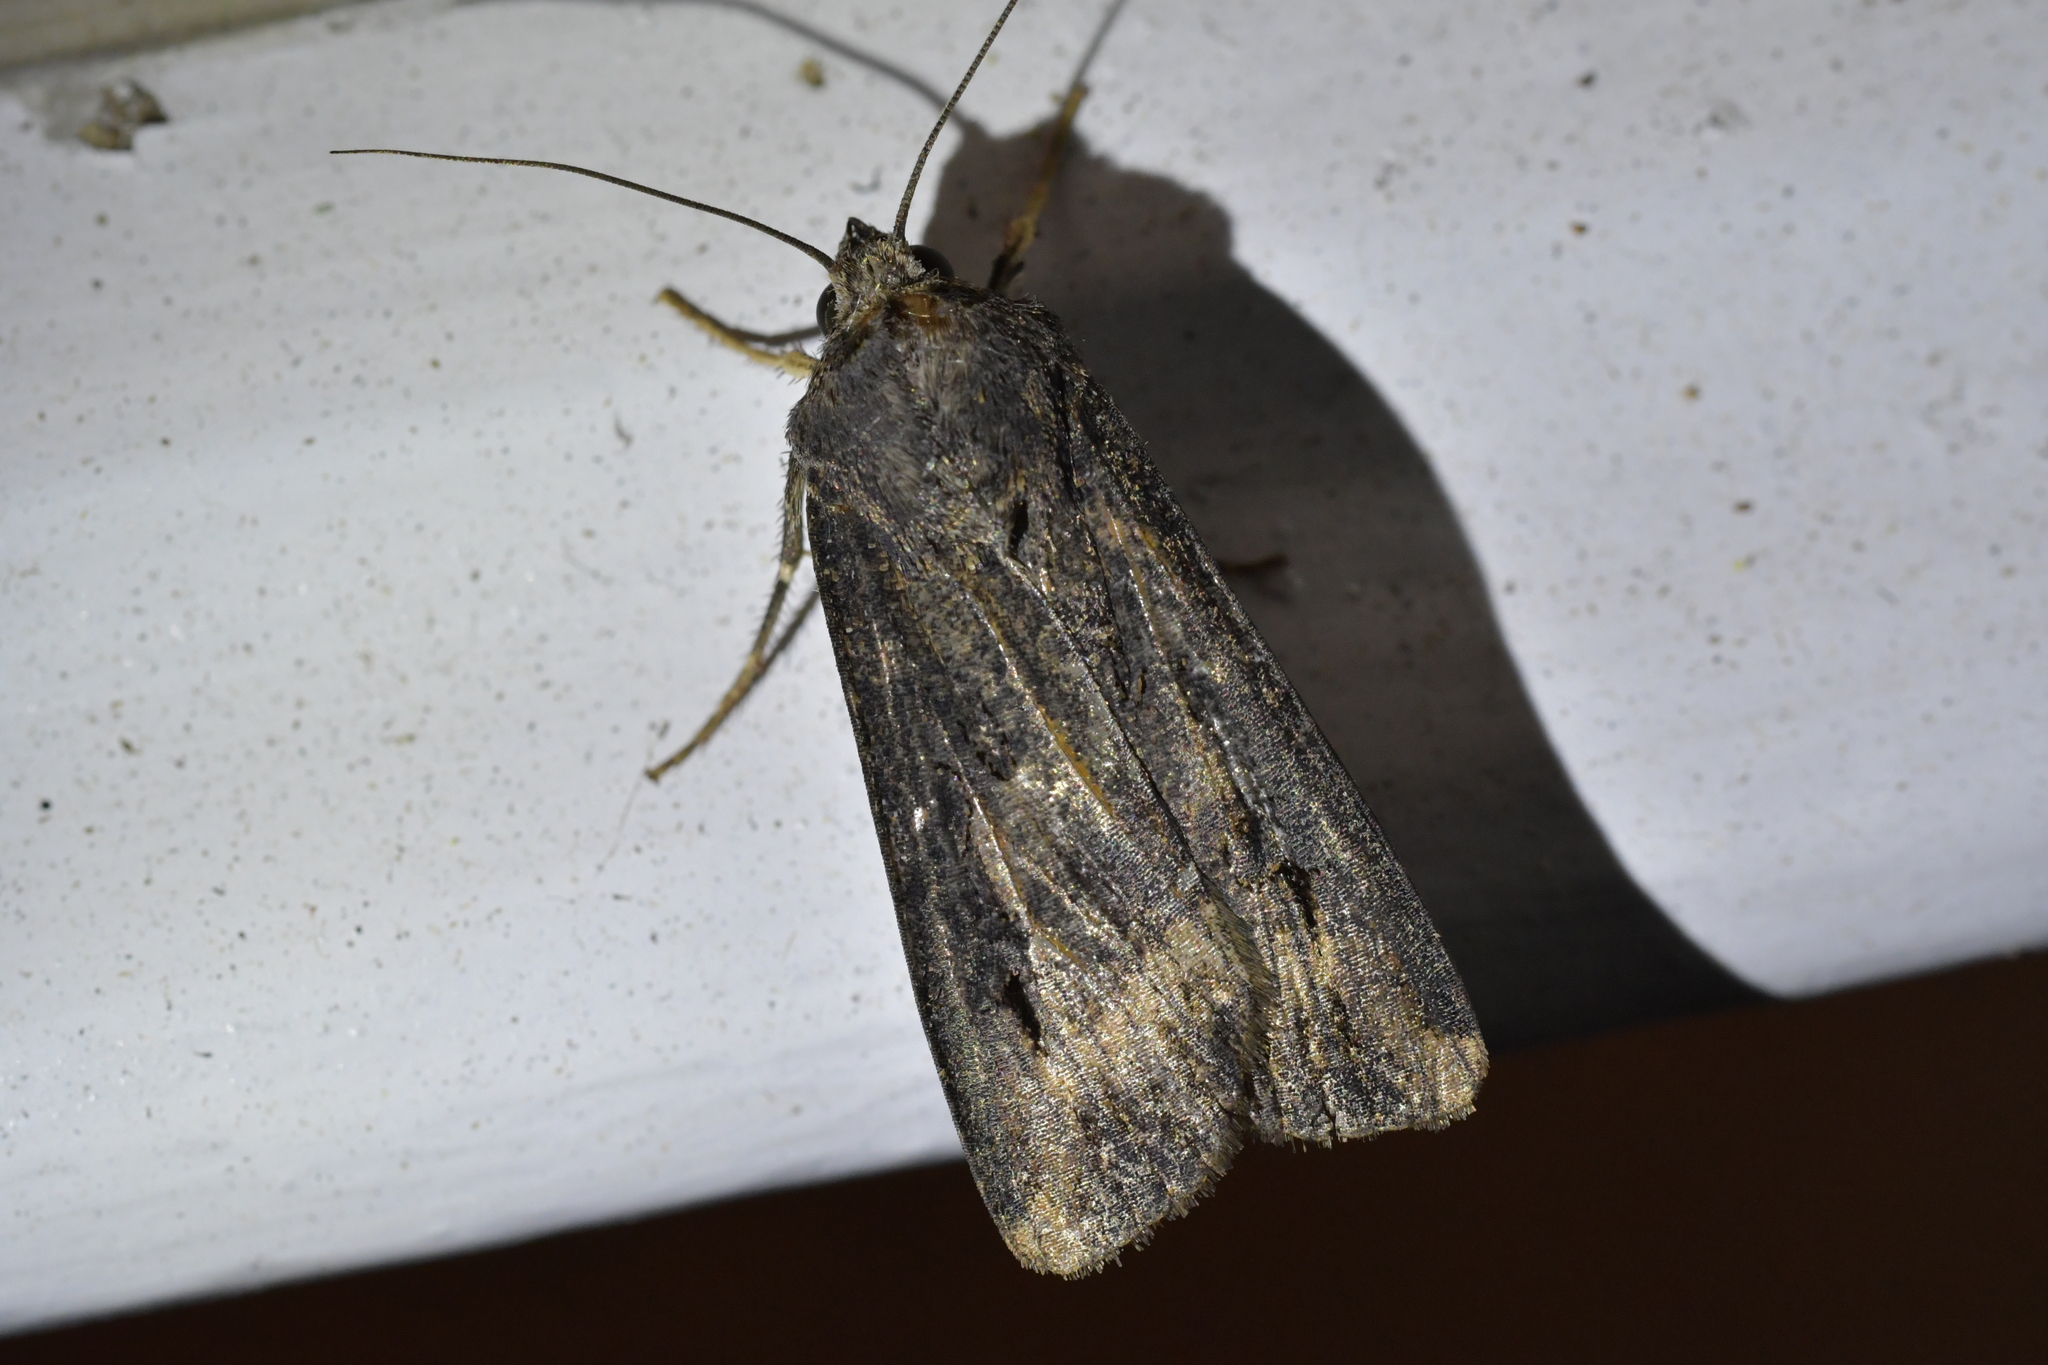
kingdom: Animalia
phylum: Arthropoda
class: Insecta
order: Lepidoptera
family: Noctuidae
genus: Agrotis
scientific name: Agrotis ipsilon
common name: Dark sword-grass
